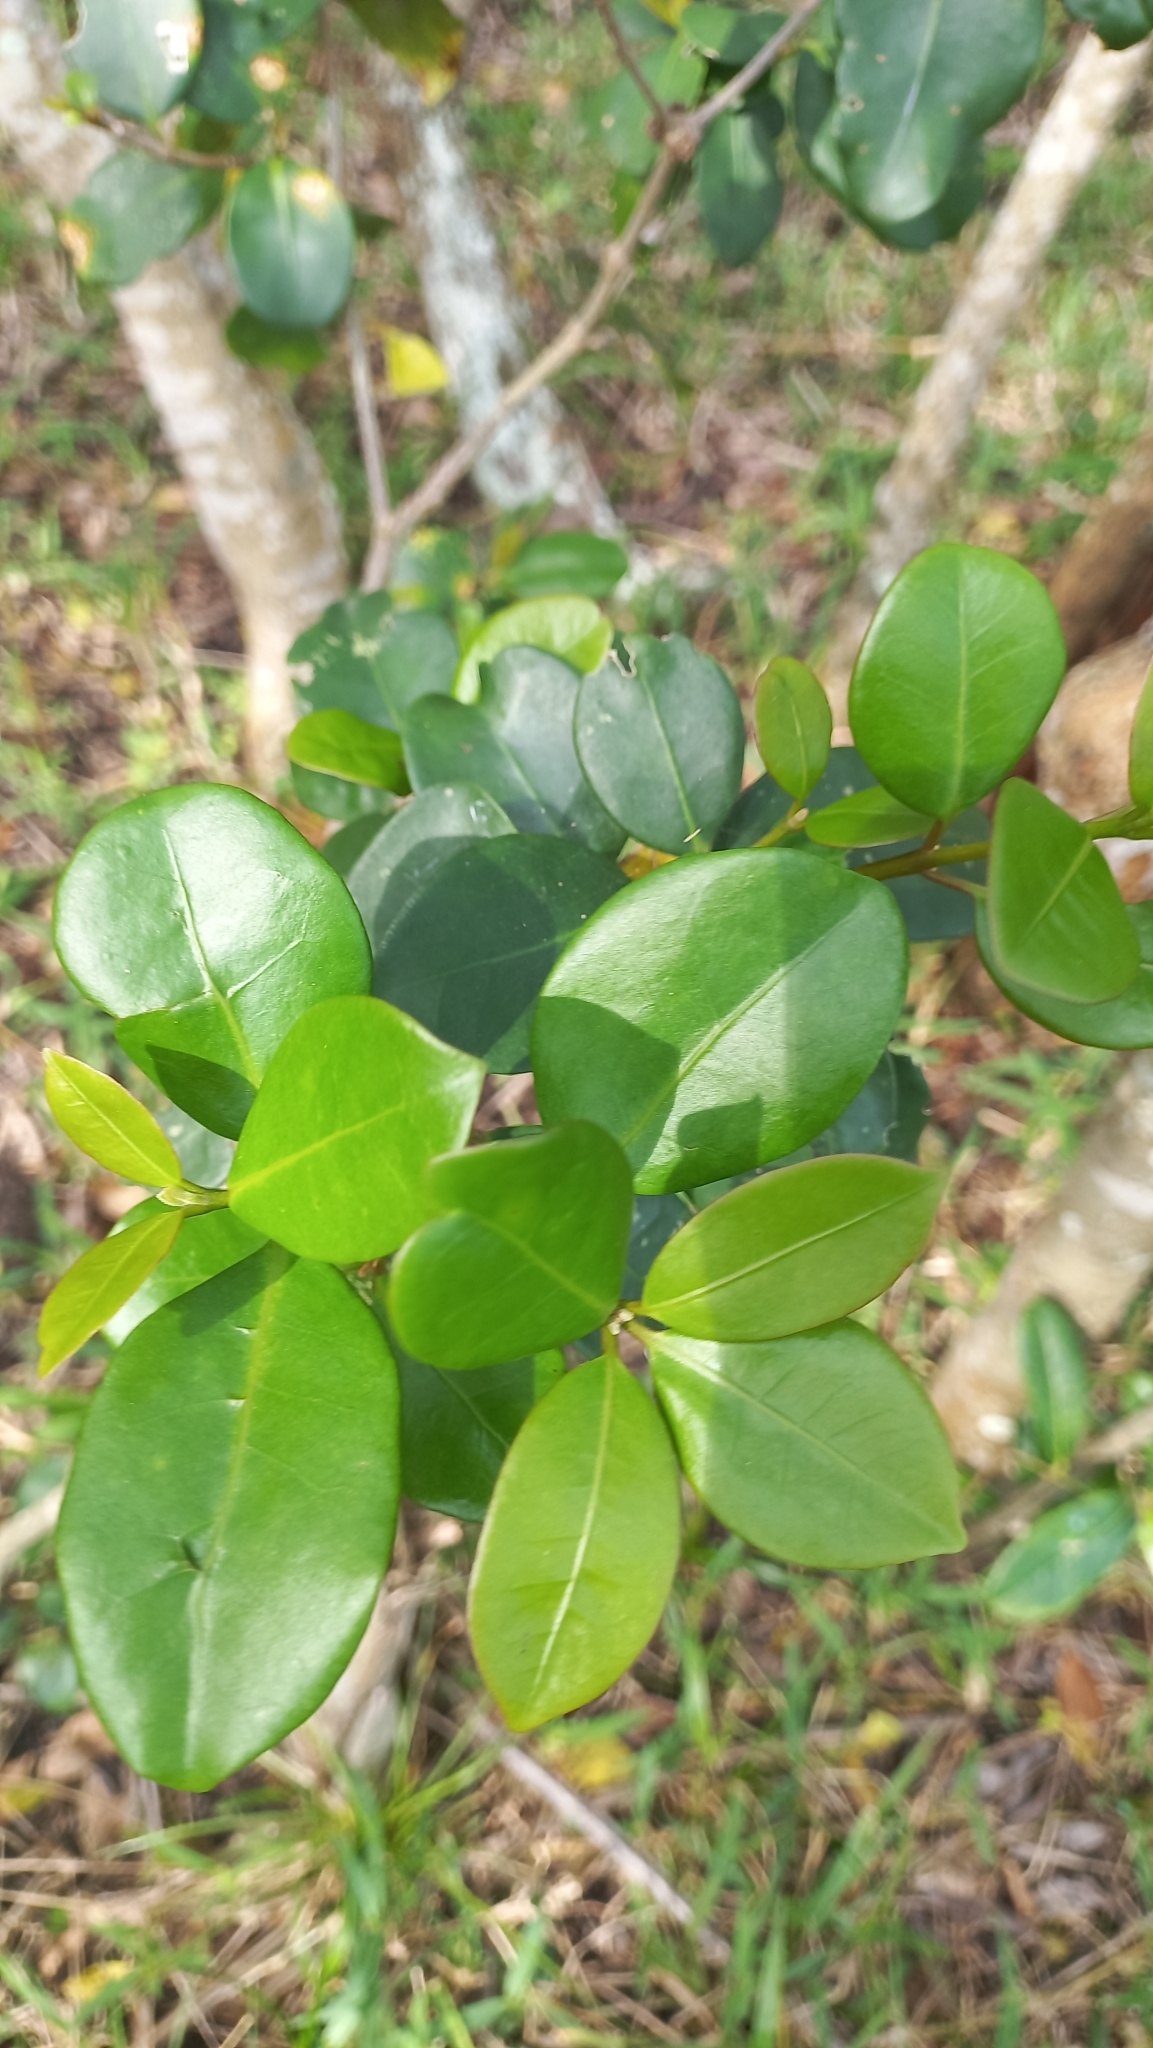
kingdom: Plantae
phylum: Tracheophyta
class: Magnoliopsida
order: Caryophyllales
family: Nyctaginaceae
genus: Guapira
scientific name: Guapira opposita
